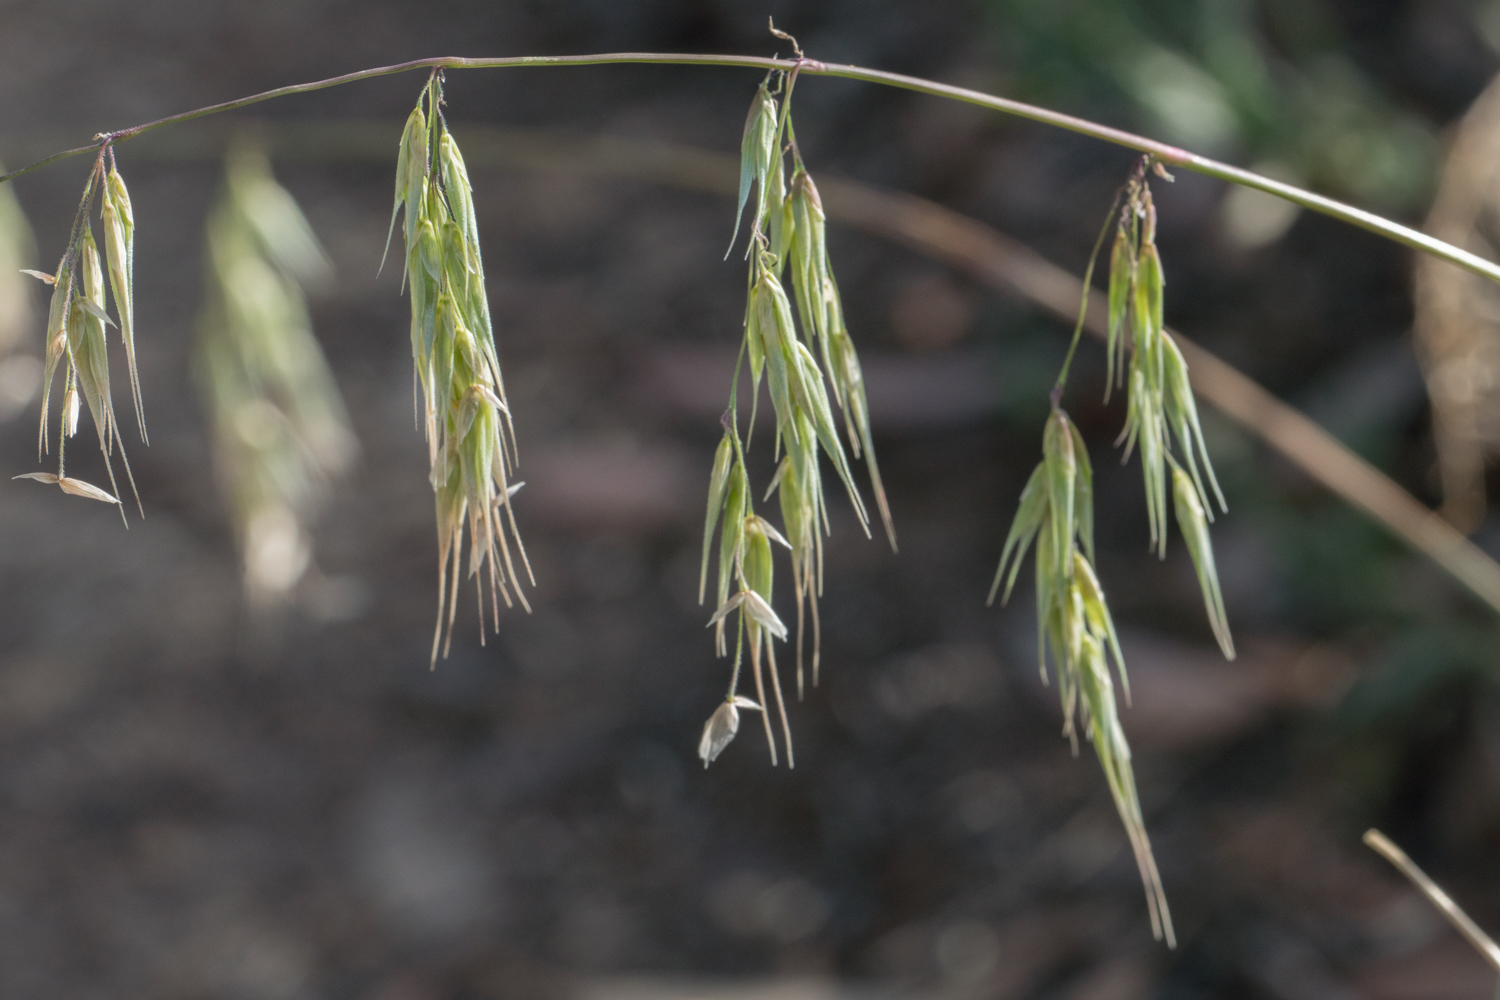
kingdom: Plantae
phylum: Tracheophyta
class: Liliopsida
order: Poales
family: Poaceae
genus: Ehrharta
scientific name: Ehrharta longiflora
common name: Longflowered veldtgrass
